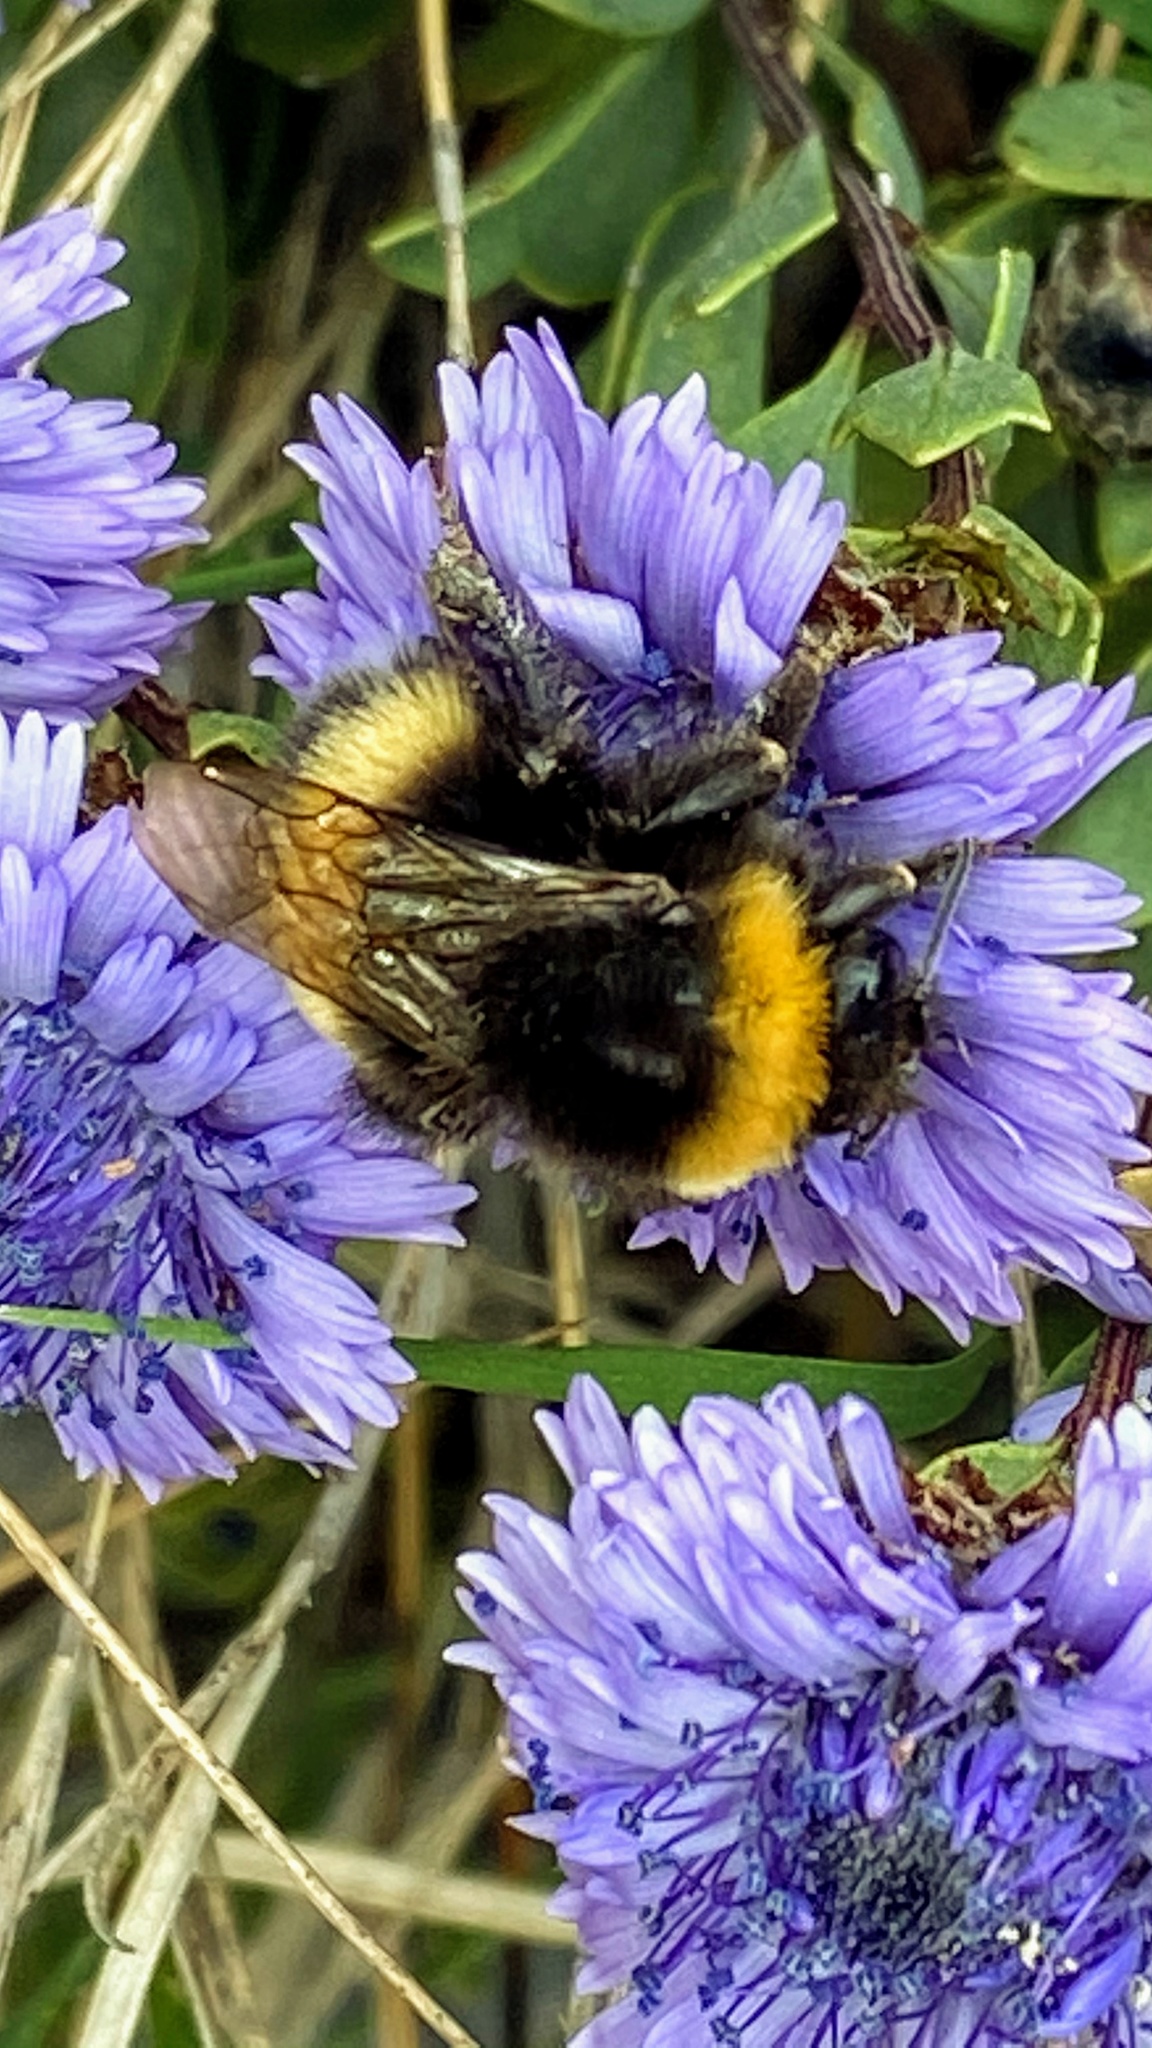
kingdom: Animalia
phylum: Arthropoda
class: Insecta
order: Hymenoptera
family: Apidae
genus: Bombus
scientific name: Bombus terrestris
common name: Buff-tailed bumblebee
